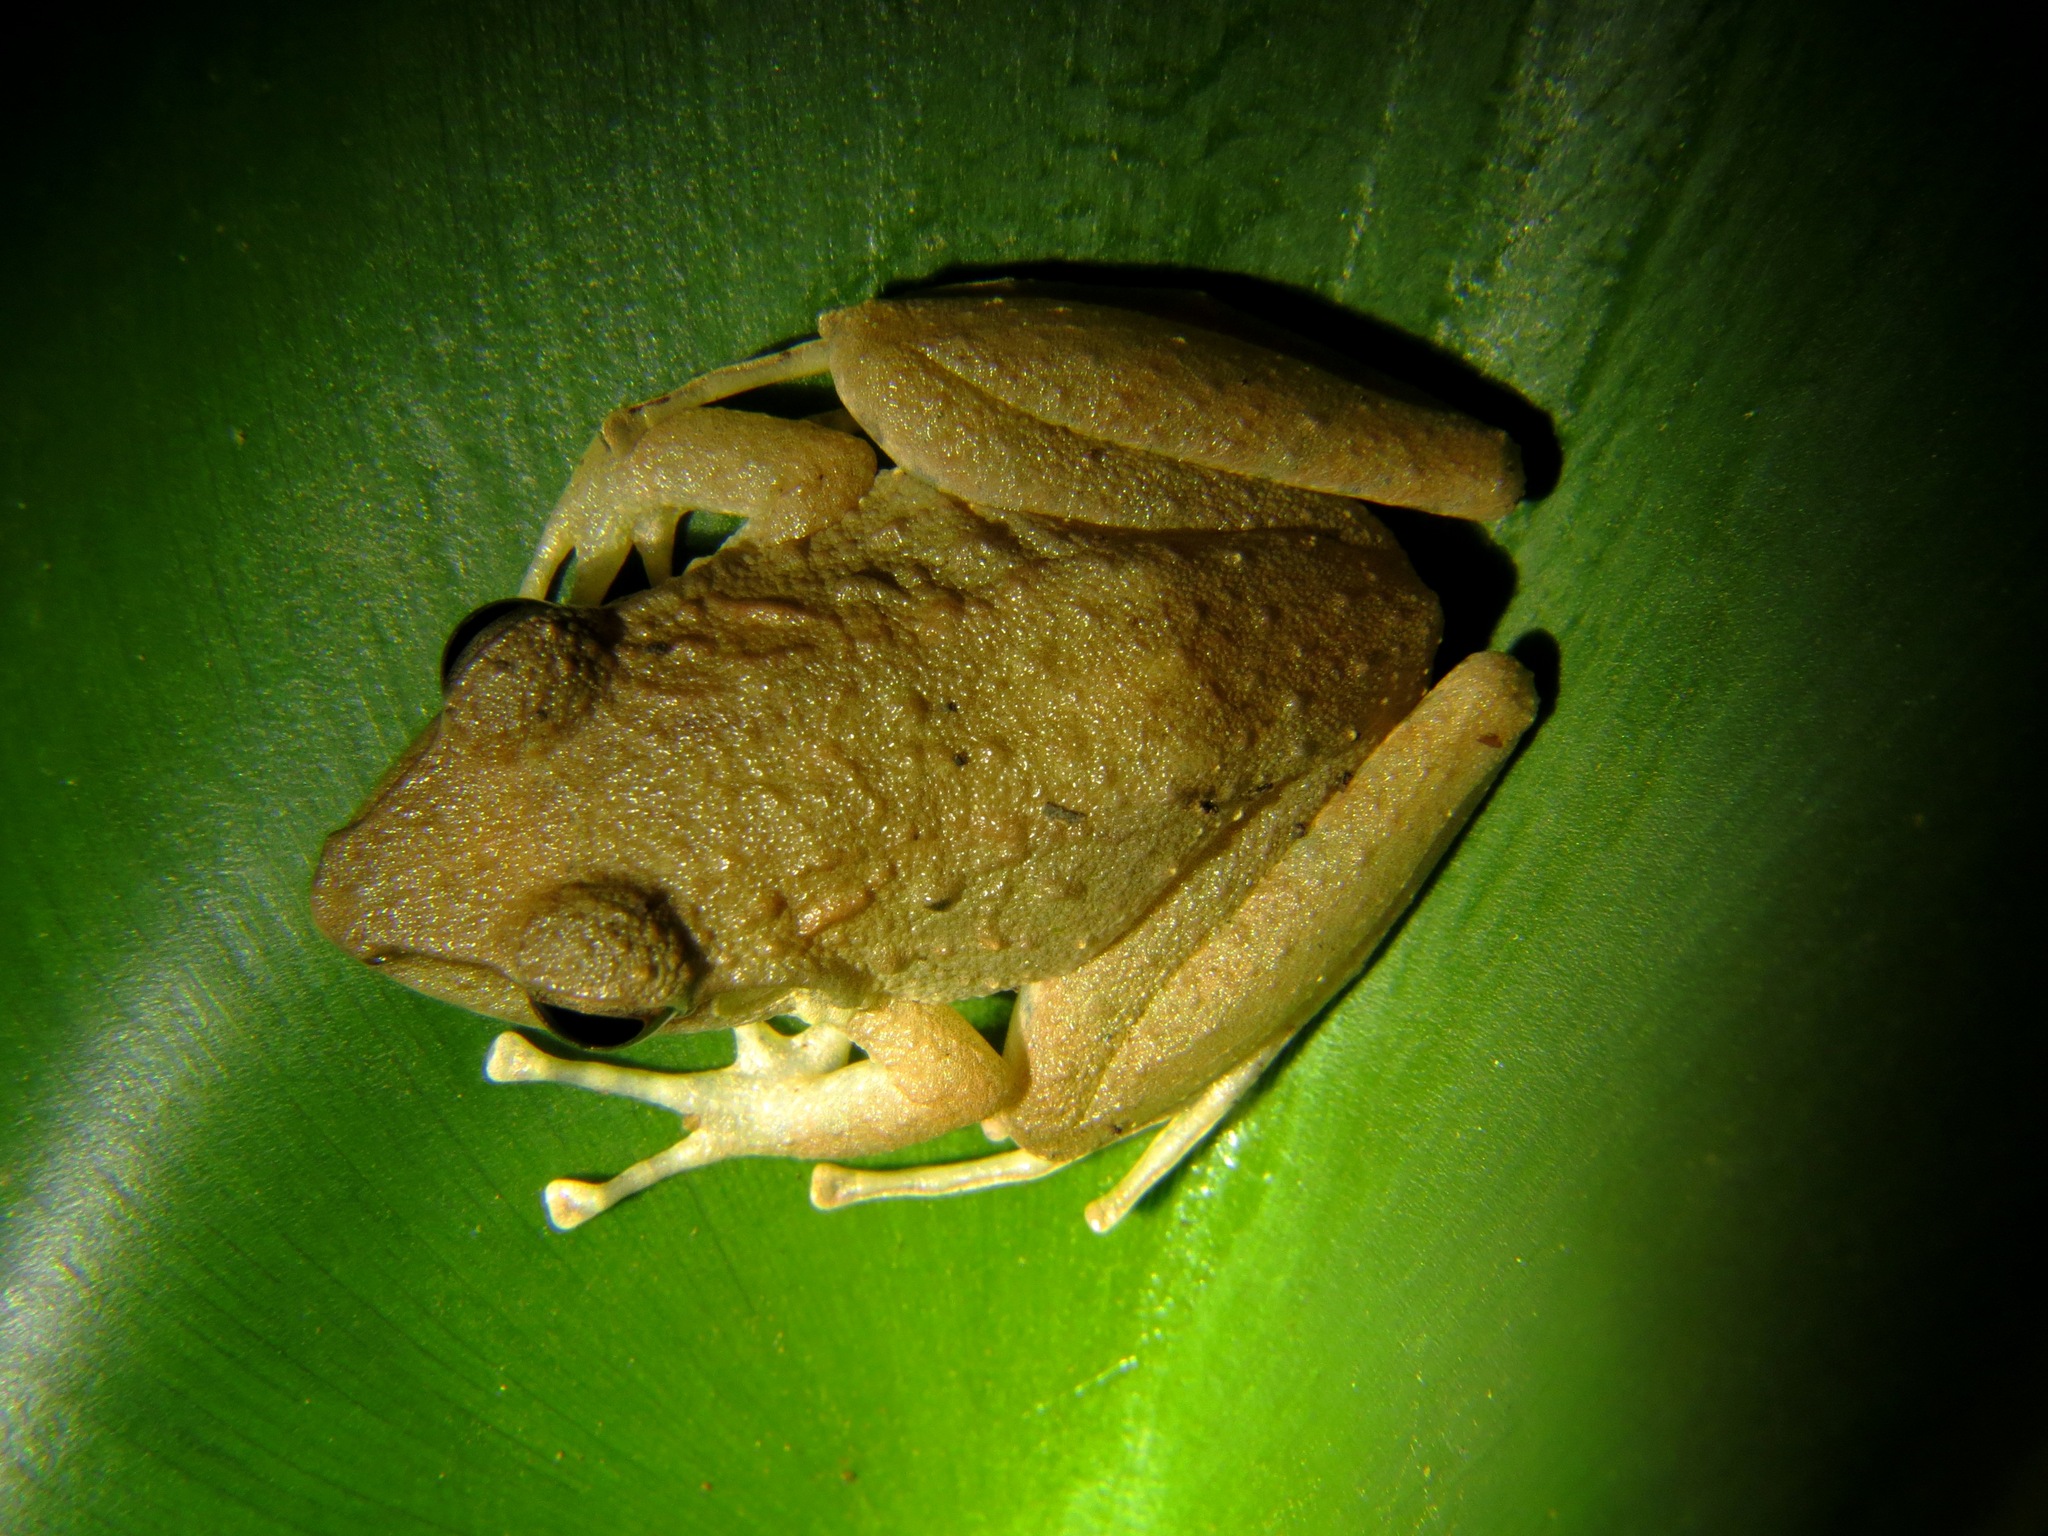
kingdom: Animalia
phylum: Chordata
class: Amphibia
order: Anura
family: Craugastoridae
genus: Craugastor
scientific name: Craugastor fitzingeri
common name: Fitzinger's robber frog
